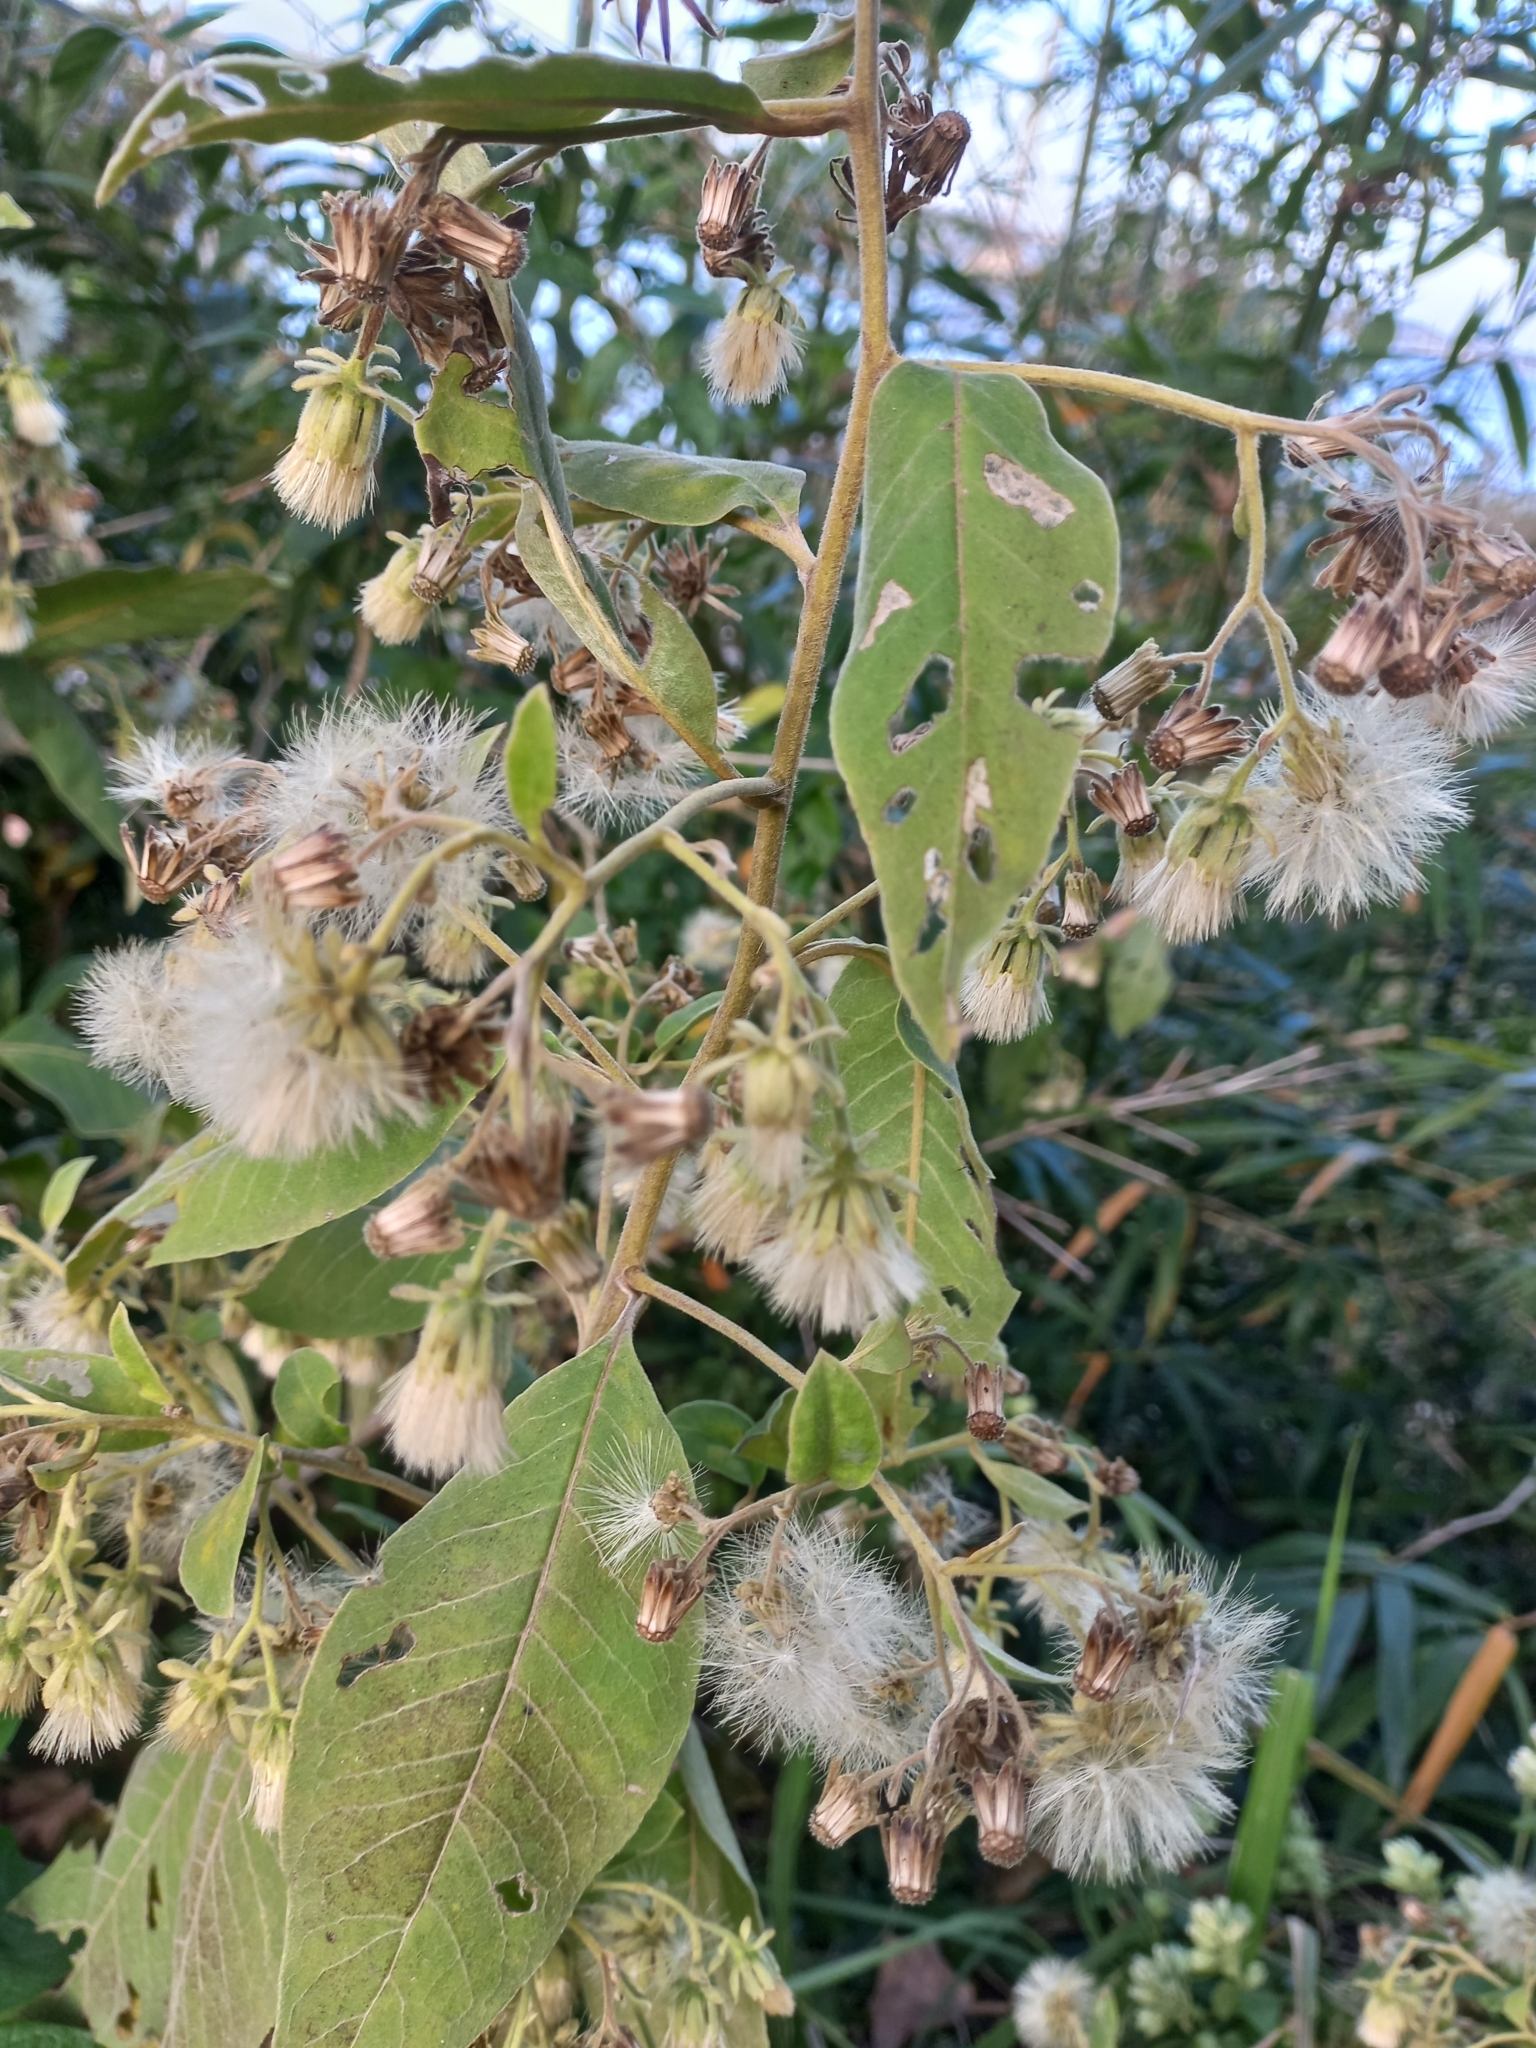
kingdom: Plantae
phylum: Tracheophyta
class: Magnoliopsida
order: Asterales
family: Asteraceae
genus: Trixis
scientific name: Trixis praestans
